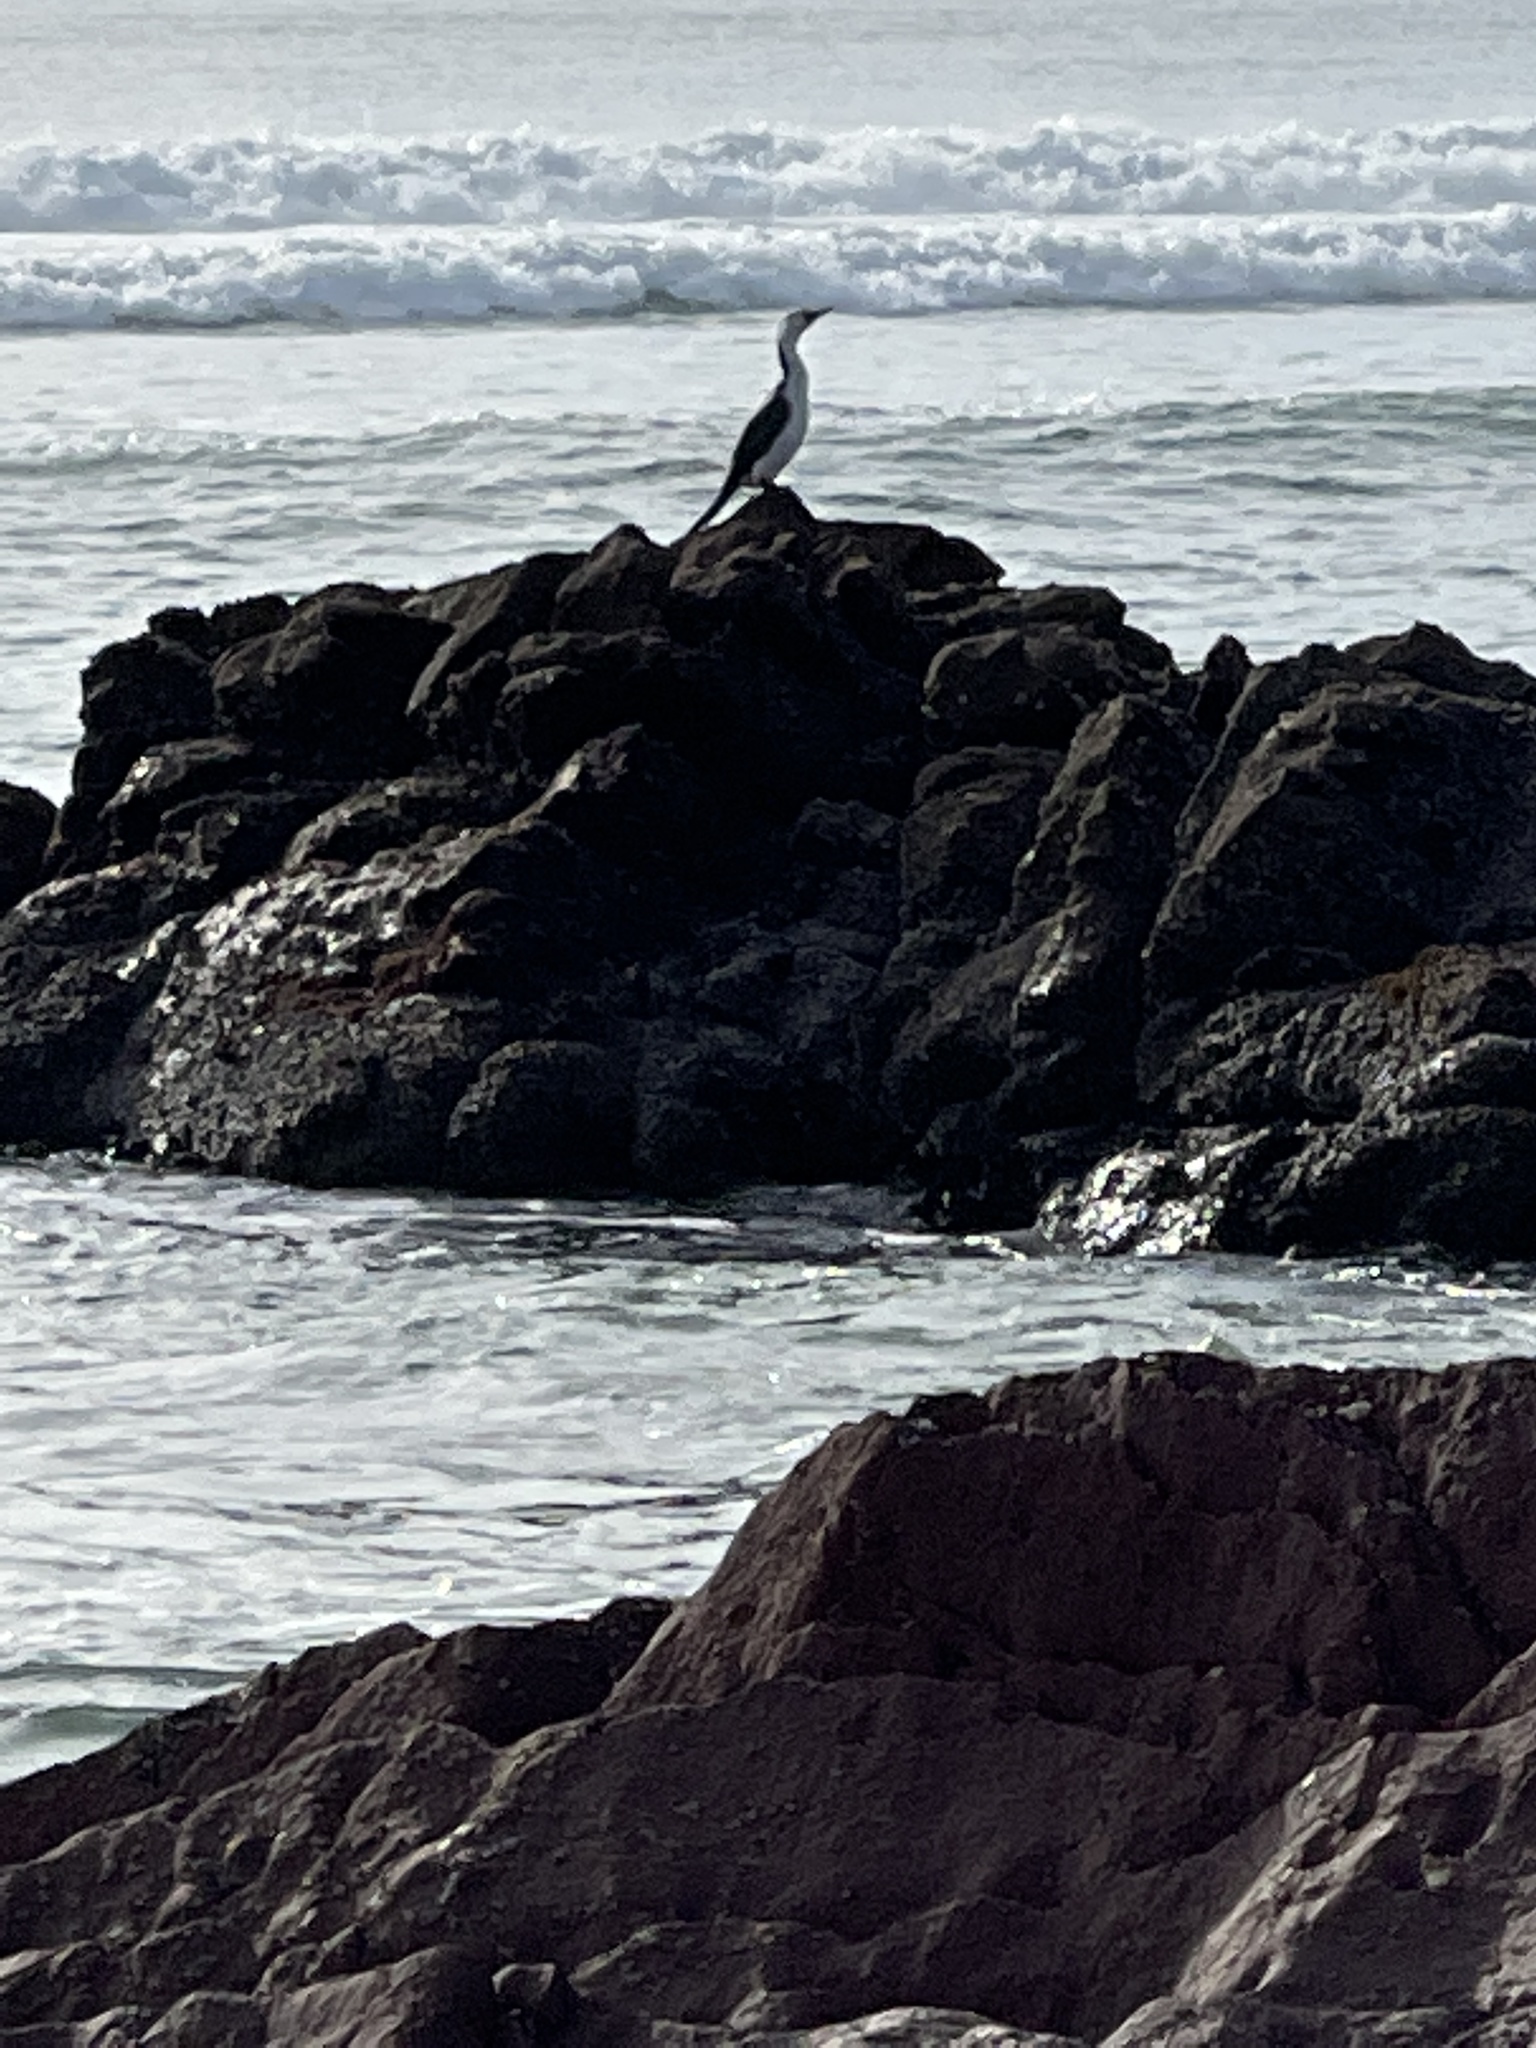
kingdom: Animalia
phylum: Chordata
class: Aves
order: Suliformes
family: Phalacrocoracidae
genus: Microcarbo
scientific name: Microcarbo melanoleucos
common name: Little pied cormorant
